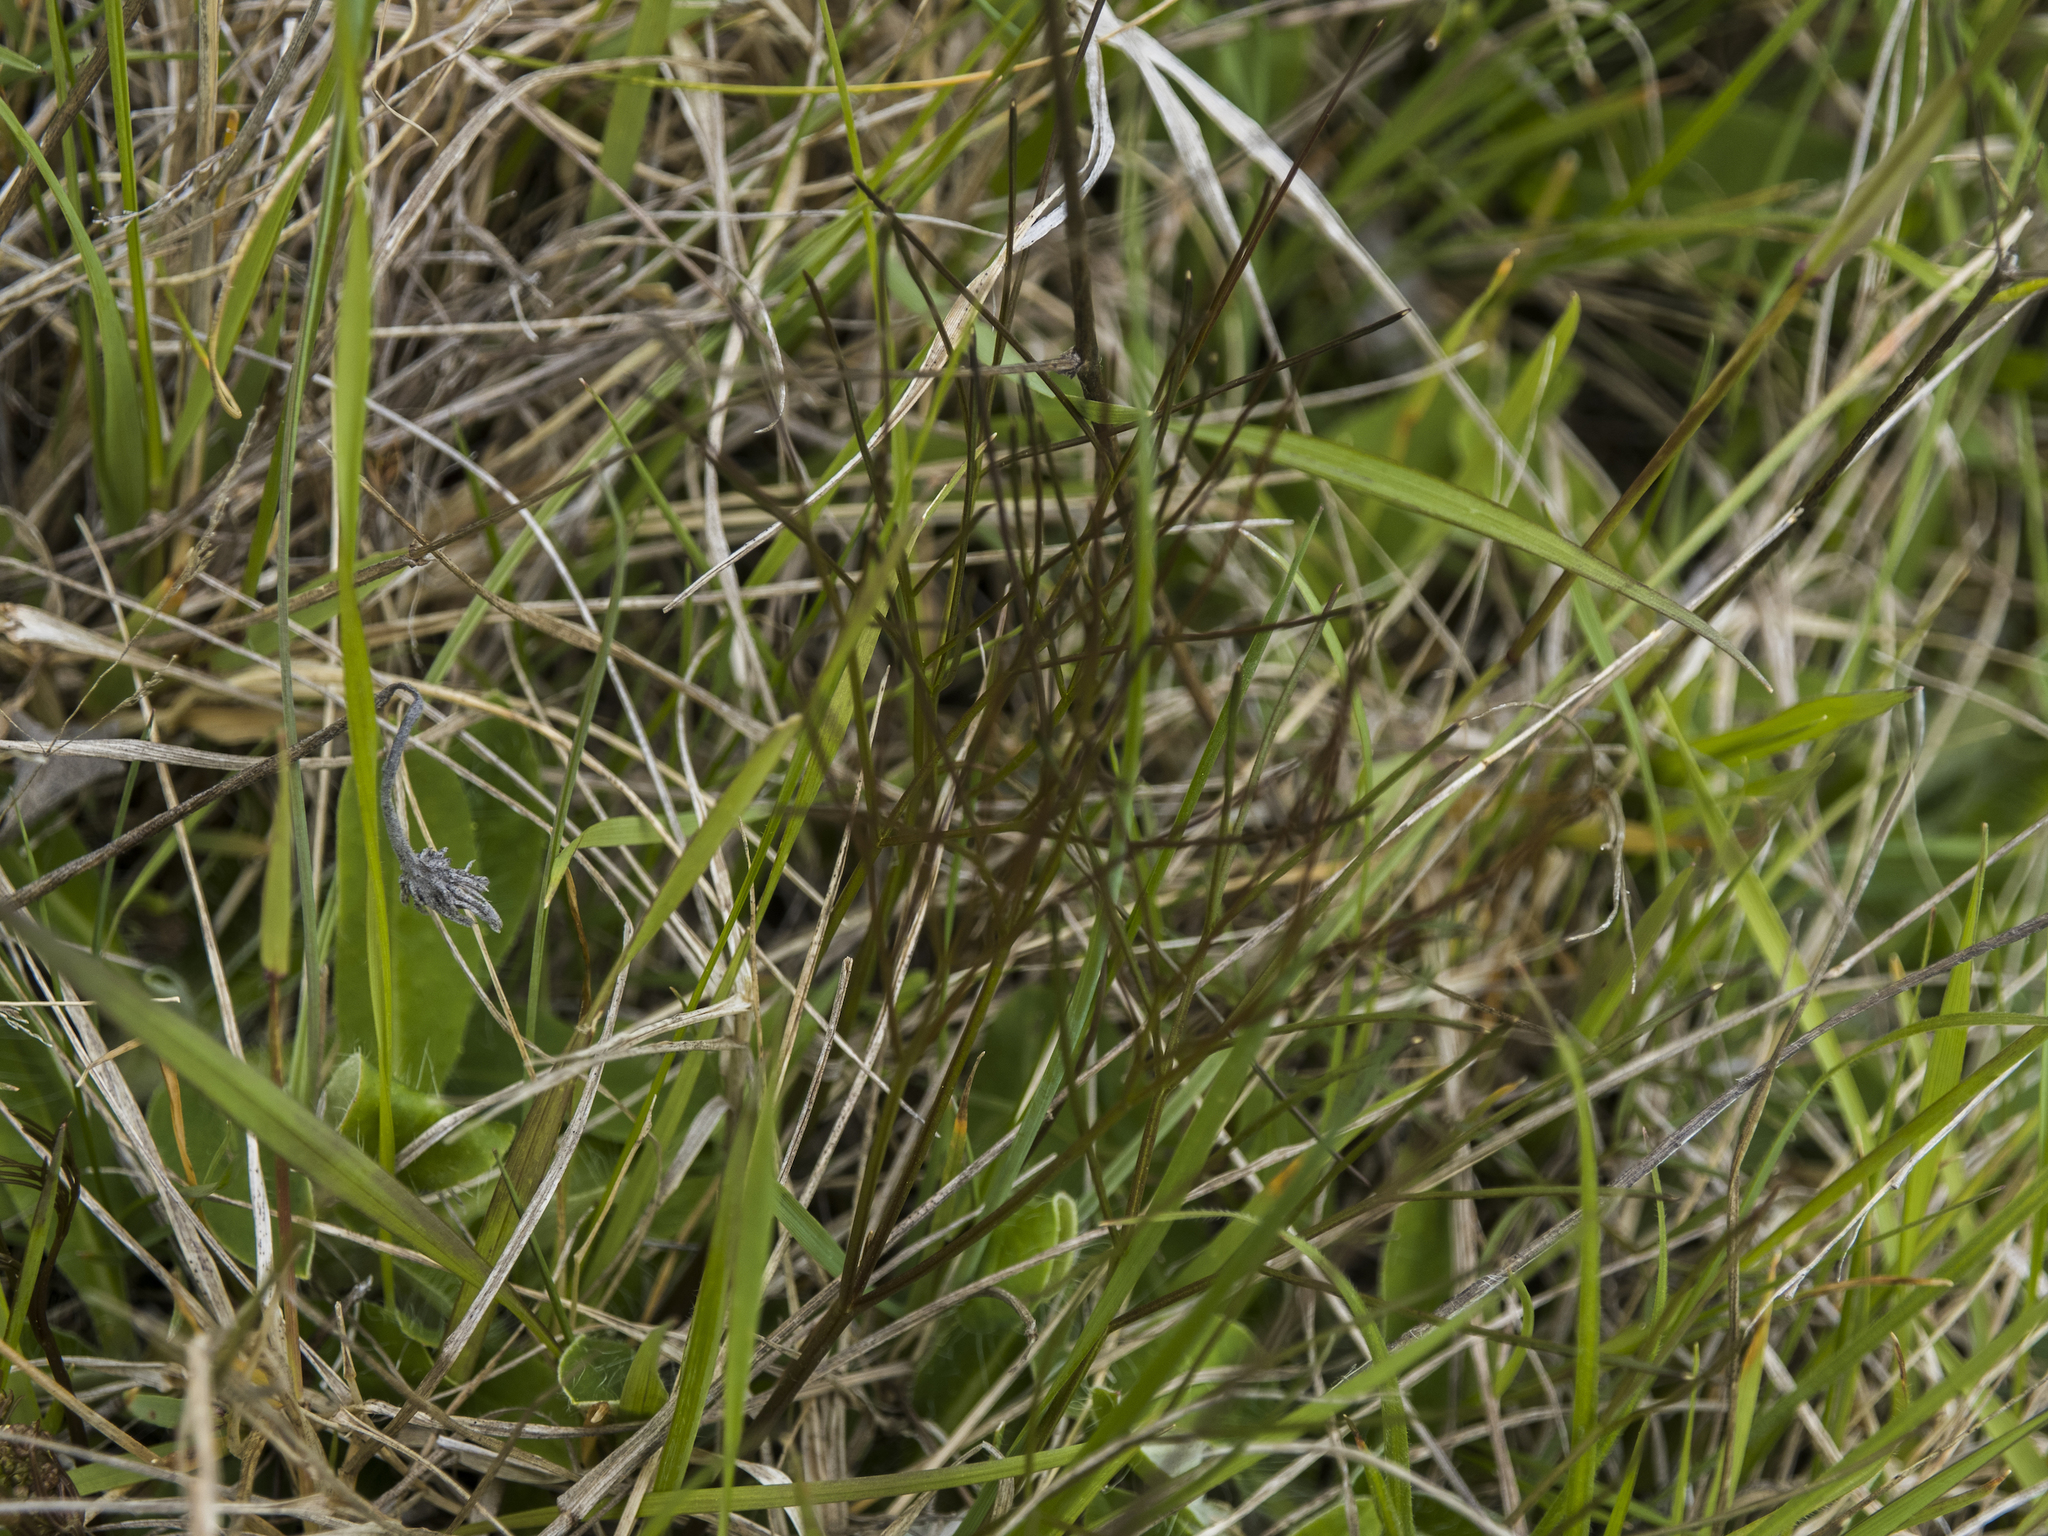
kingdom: Plantae
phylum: Tracheophyta
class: Magnoliopsida
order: Apiales
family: Apiaceae
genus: Anisotome
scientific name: Anisotome filifolia
